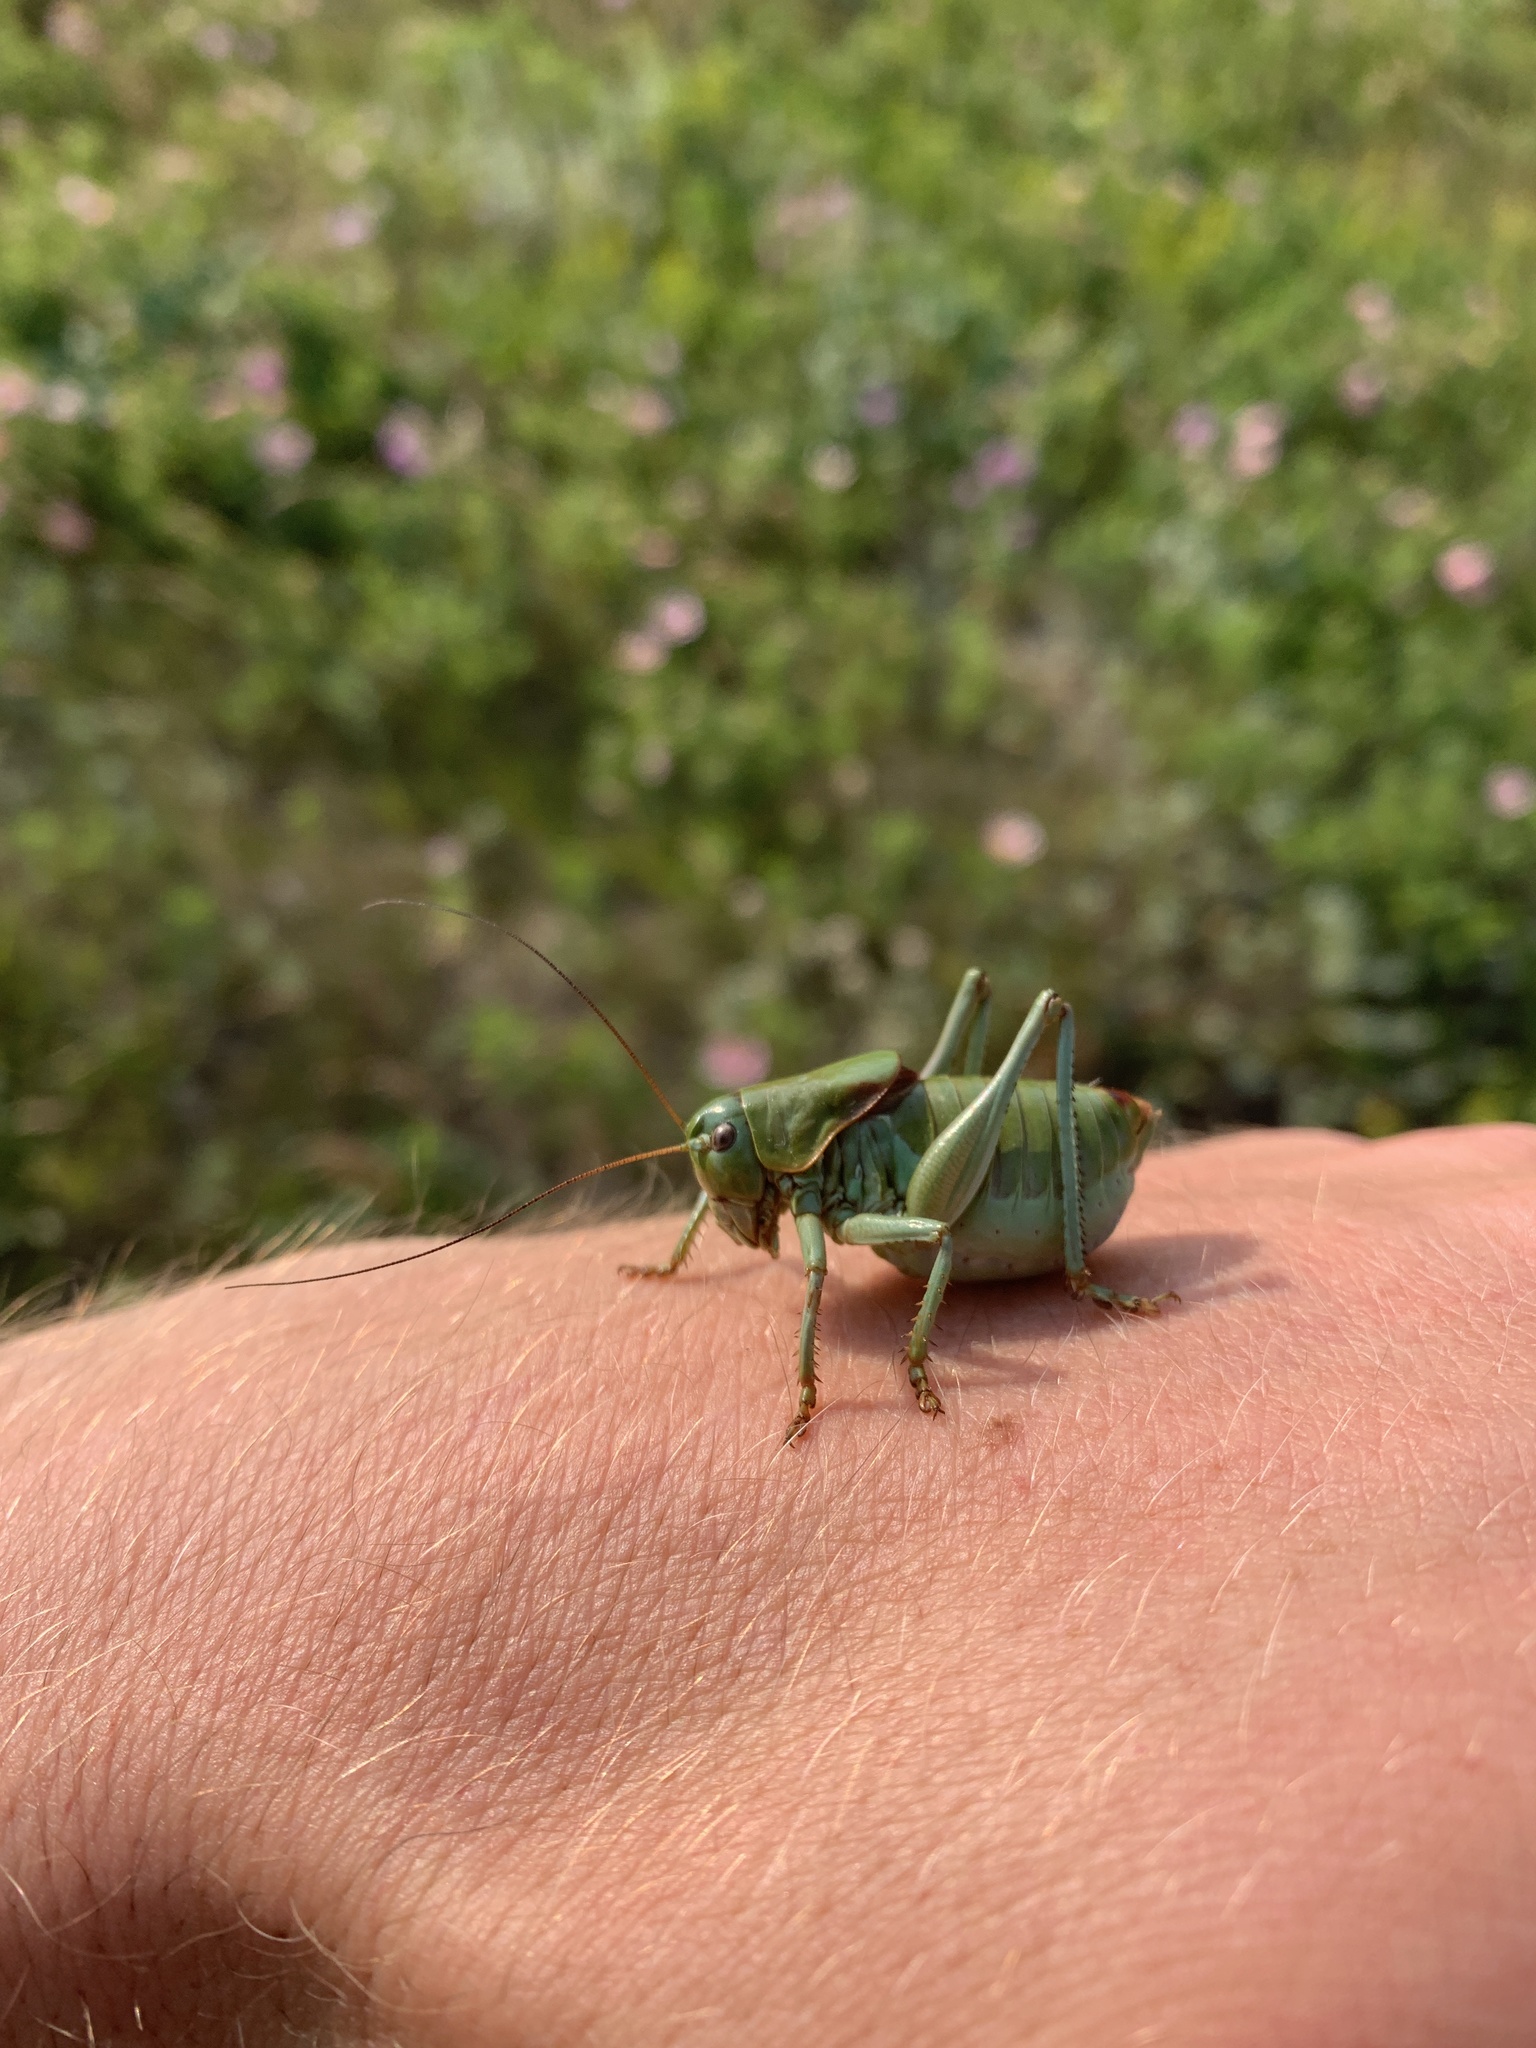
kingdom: Animalia
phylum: Arthropoda
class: Insecta
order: Orthoptera
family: Tettigoniidae
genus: Anabrus
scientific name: Anabrus simplex
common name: Mormon cricket
